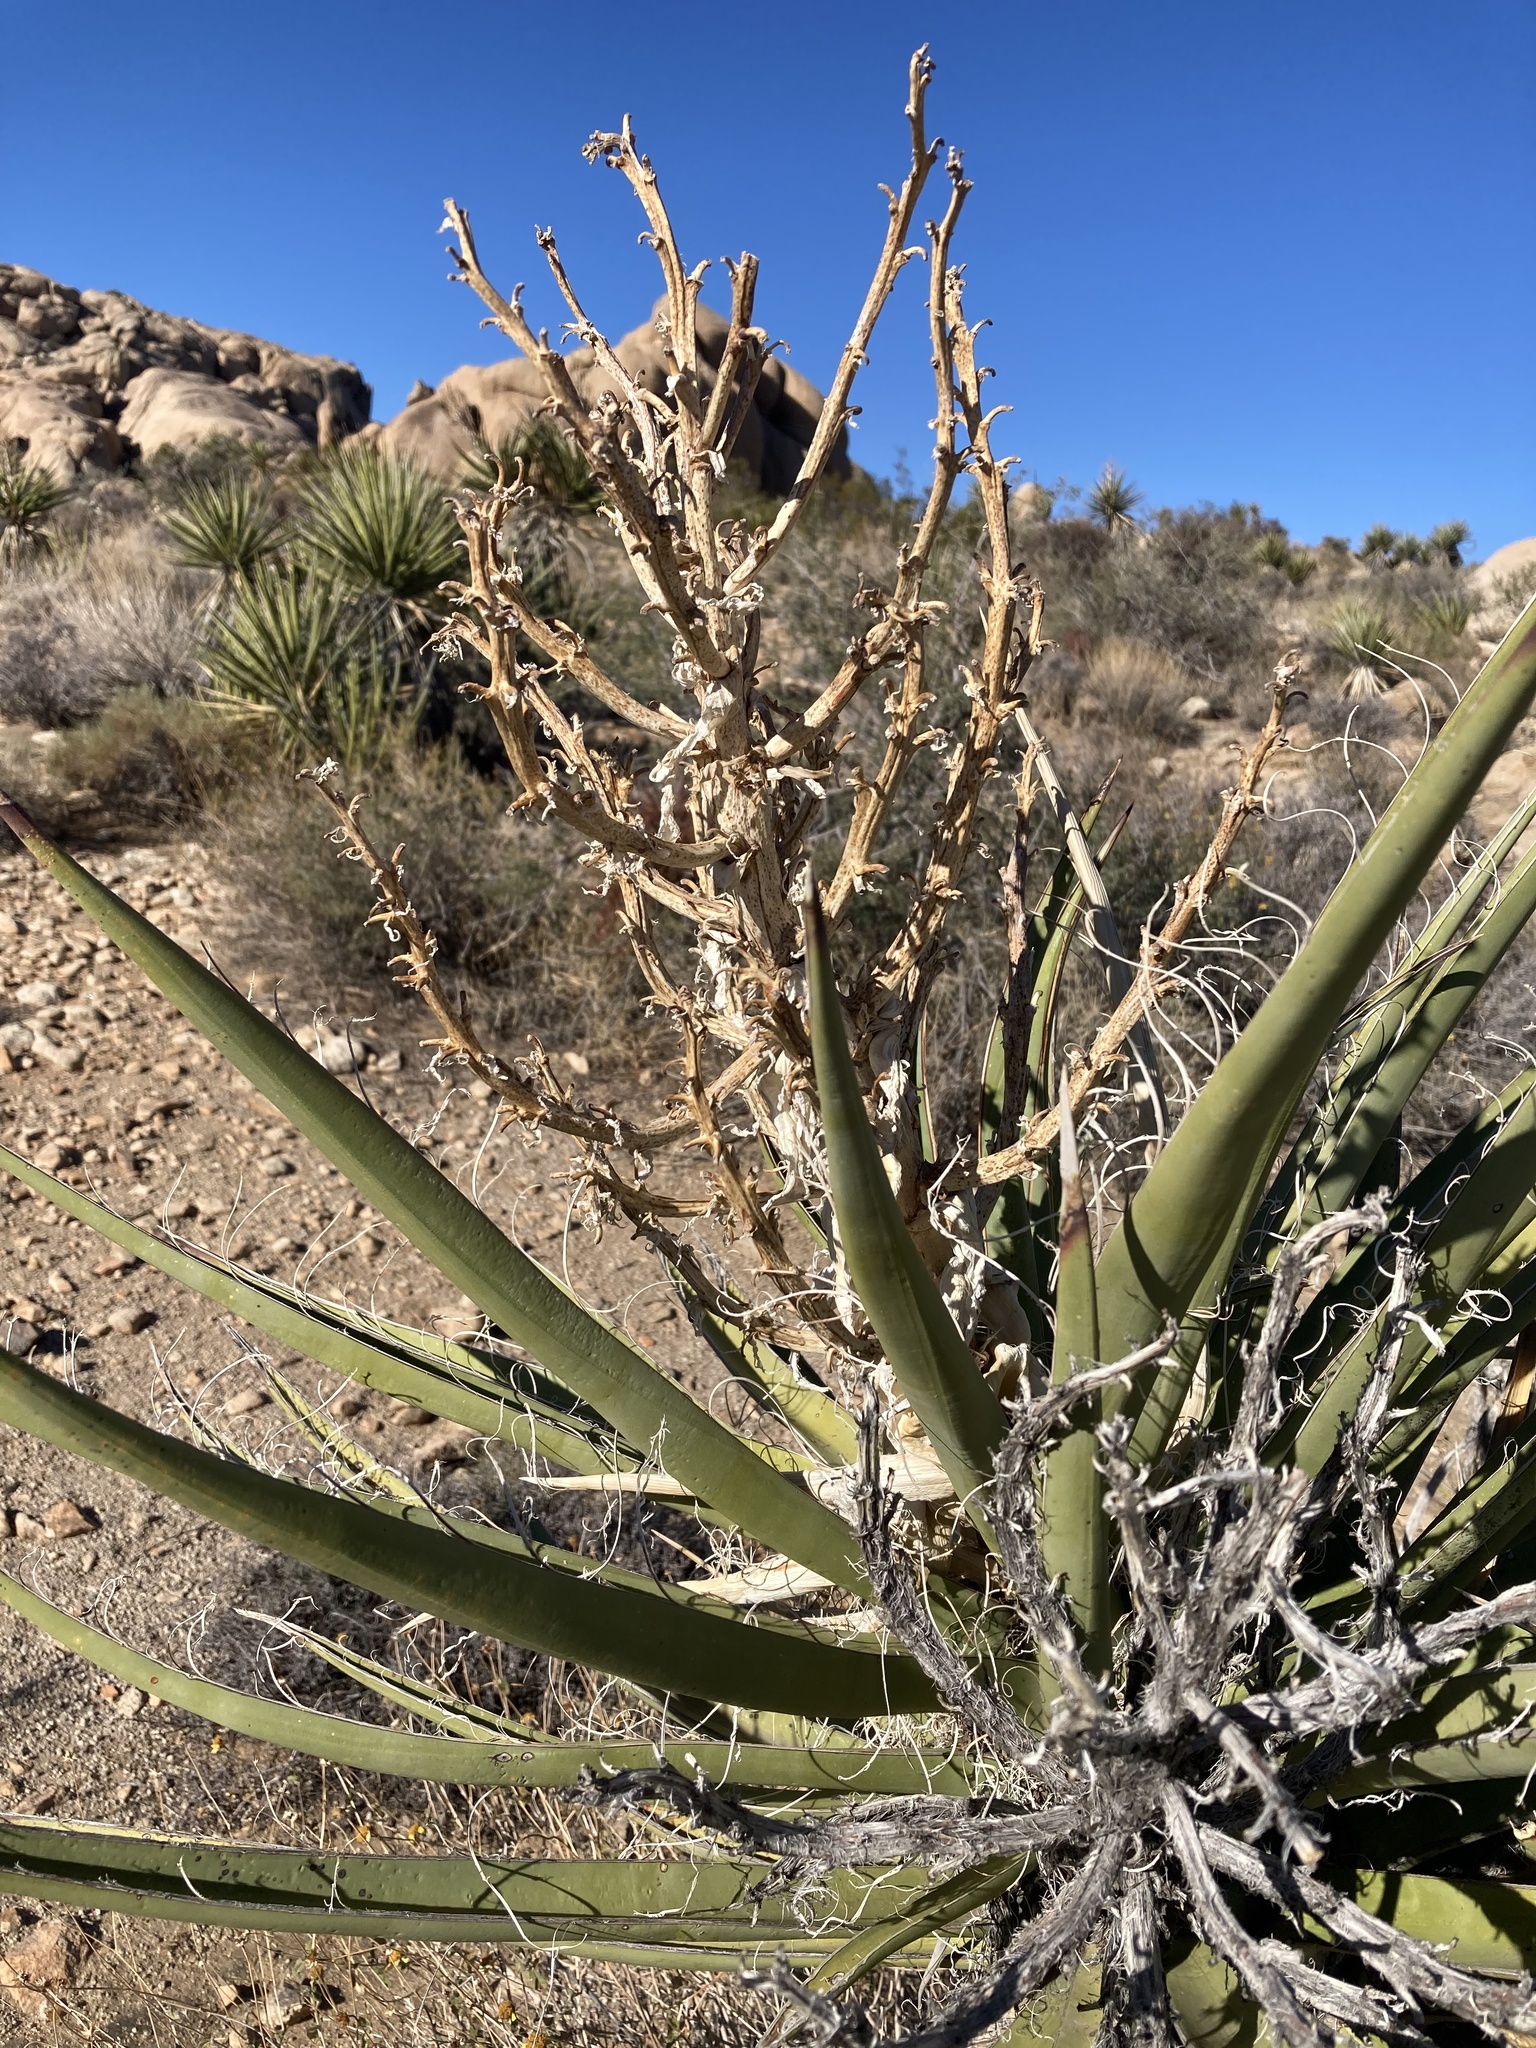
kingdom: Plantae
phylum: Tracheophyta
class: Liliopsida
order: Asparagales
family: Asparagaceae
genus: Yucca
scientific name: Yucca schidigera
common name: Mojave yucca
